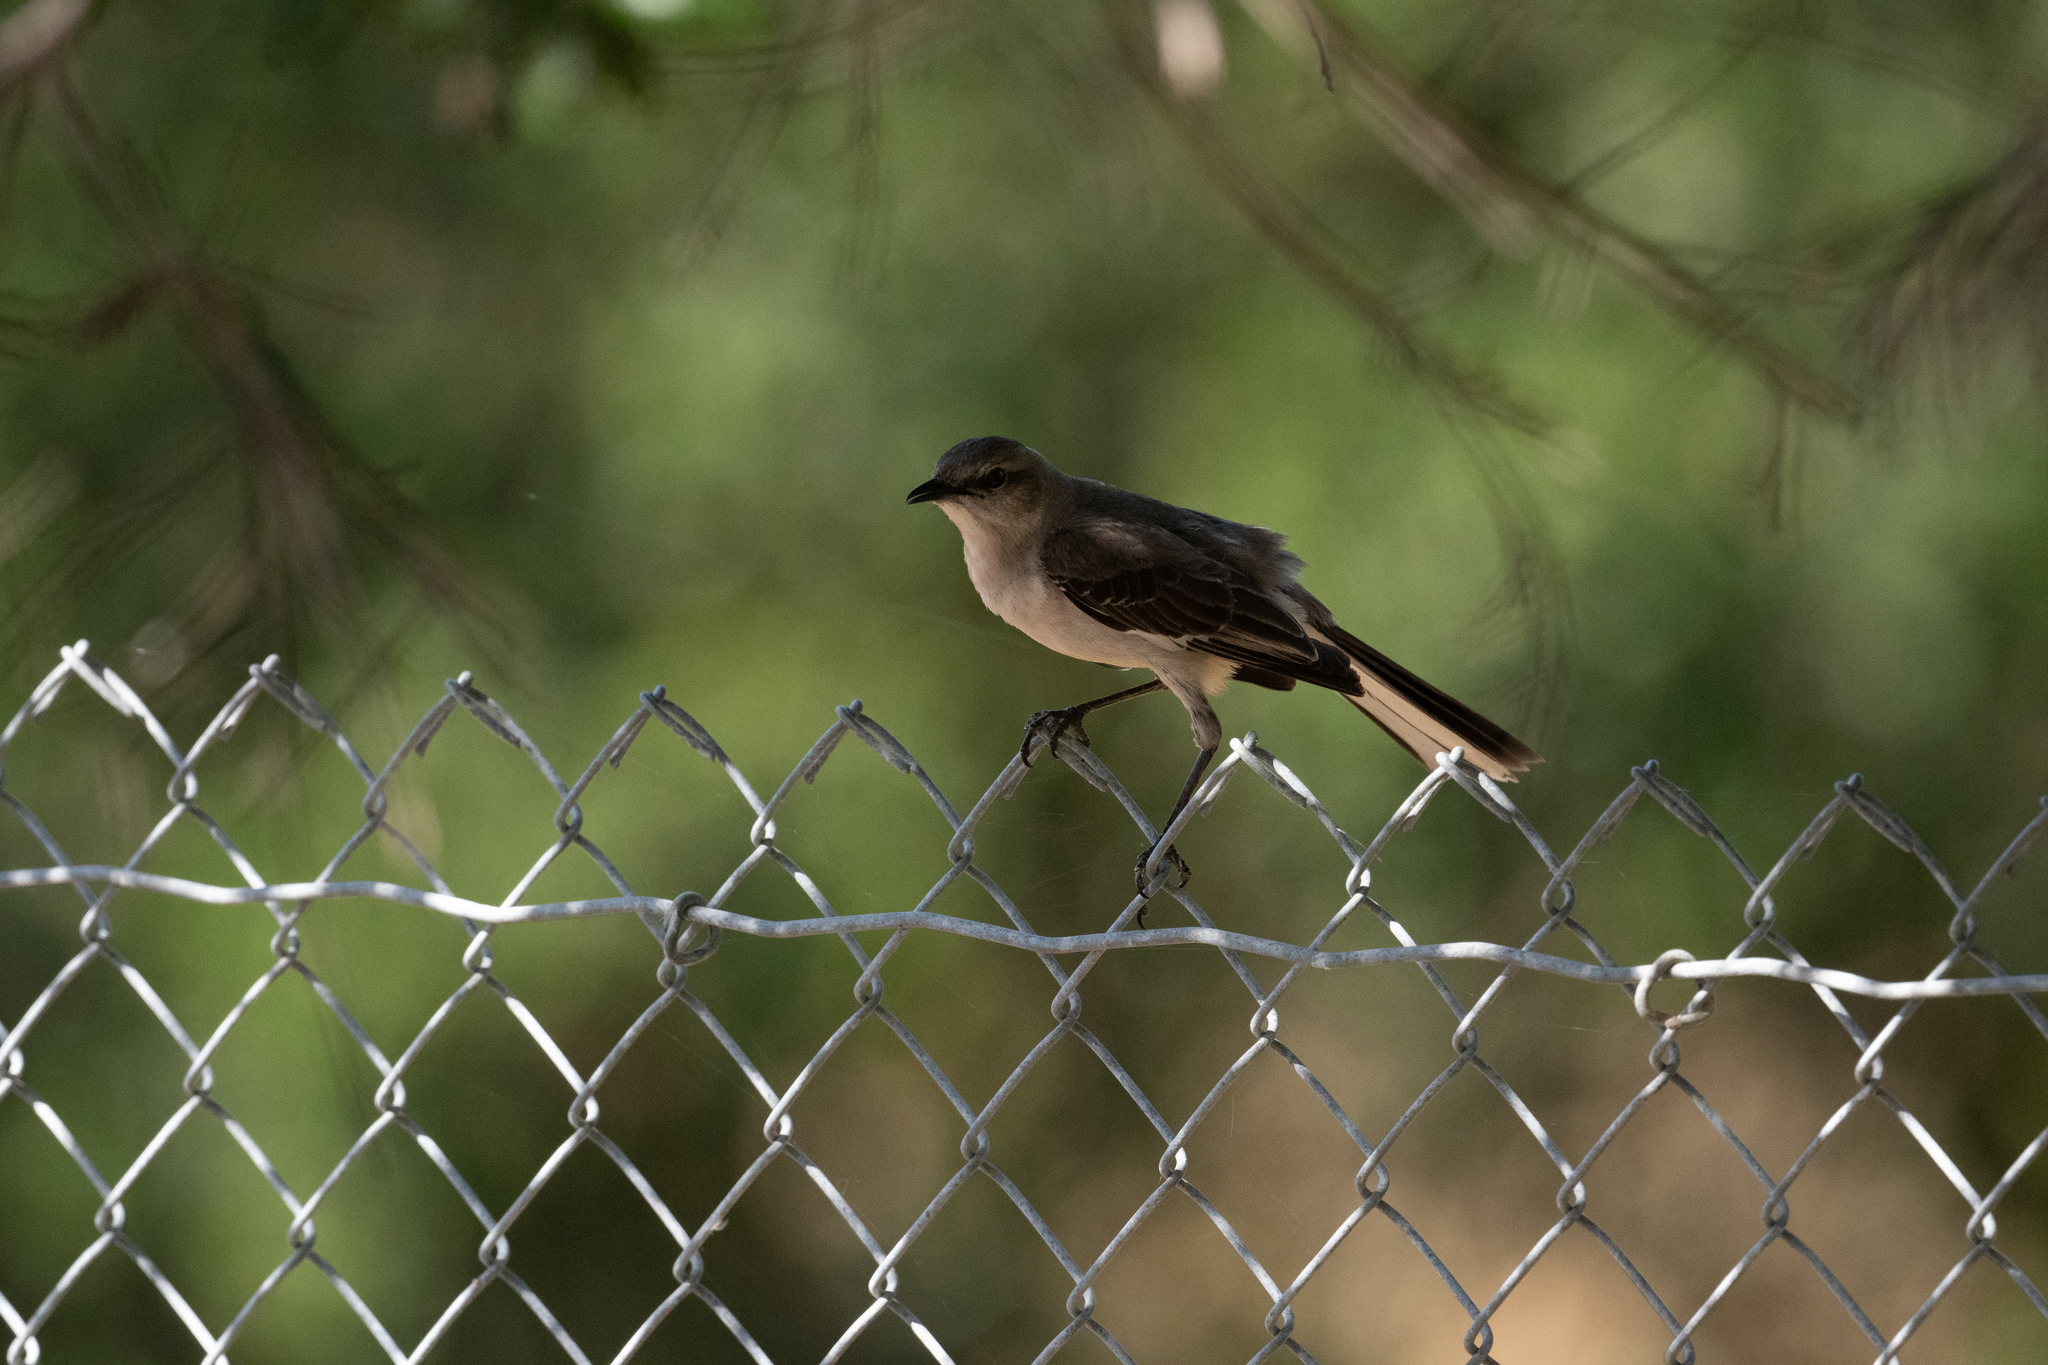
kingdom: Animalia
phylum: Chordata
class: Aves
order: Passeriformes
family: Mimidae
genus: Mimus
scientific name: Mimus polyglottos
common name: Northern mockingbird
